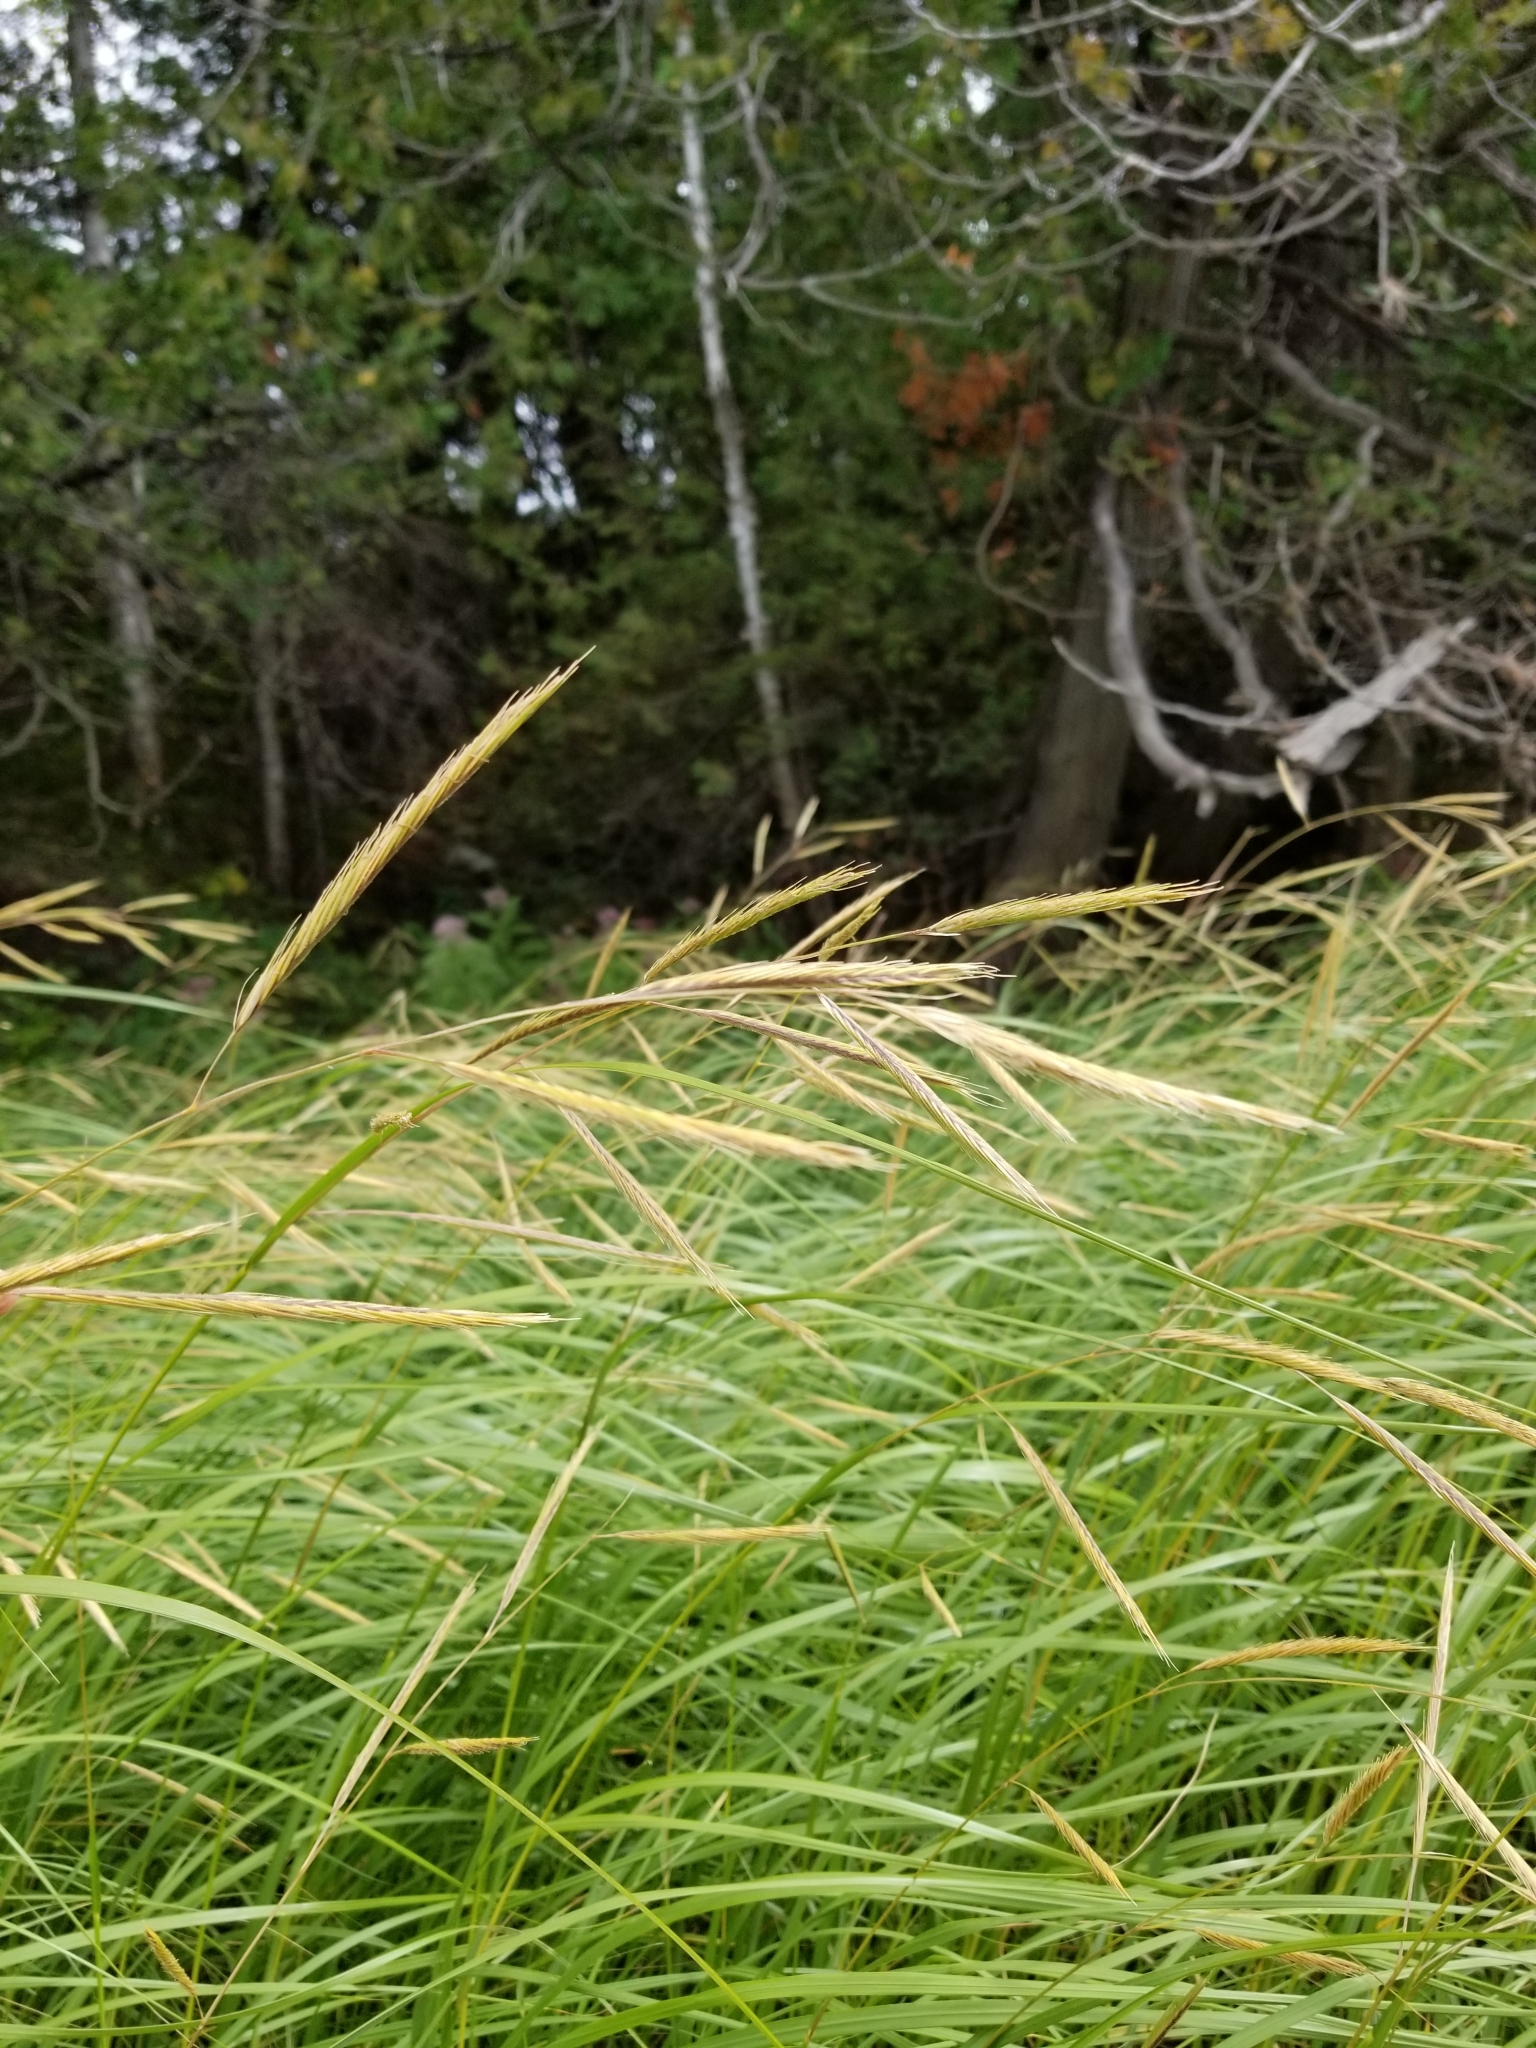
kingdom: Plantae
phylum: Tracheophyta
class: Liliopsida
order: Poales
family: Poaceae
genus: Sporobolus
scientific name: Sporobolus michauxianus
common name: Freshwater cordgrass
